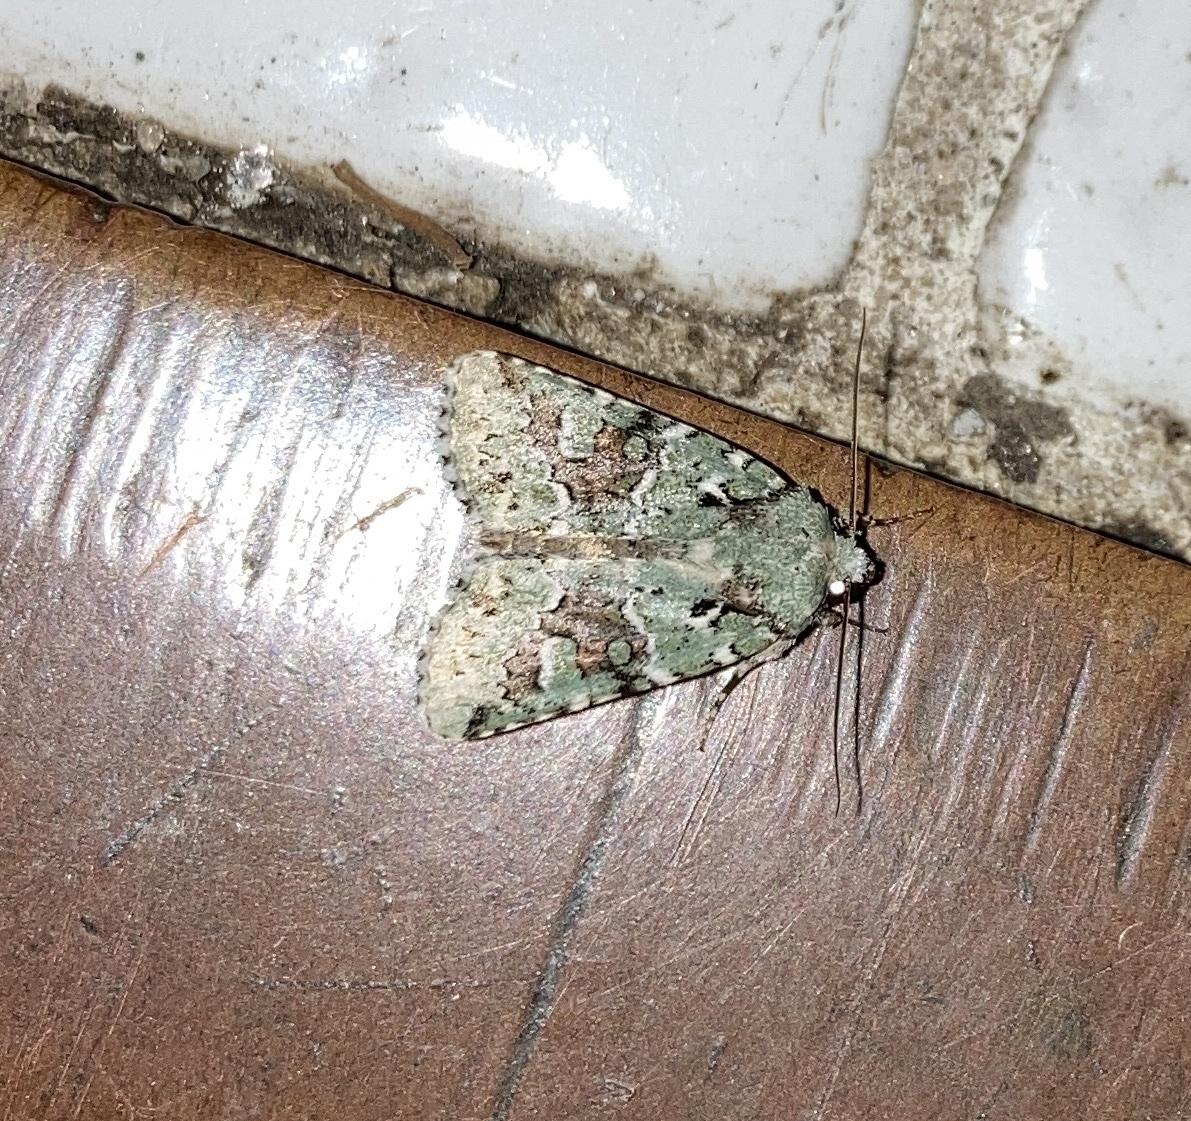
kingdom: Animalia
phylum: Arthropoda
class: Insecta
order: Lepidoptera
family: Noctuidae
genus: Lacinipolia
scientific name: Lacinipolia laudabilis
